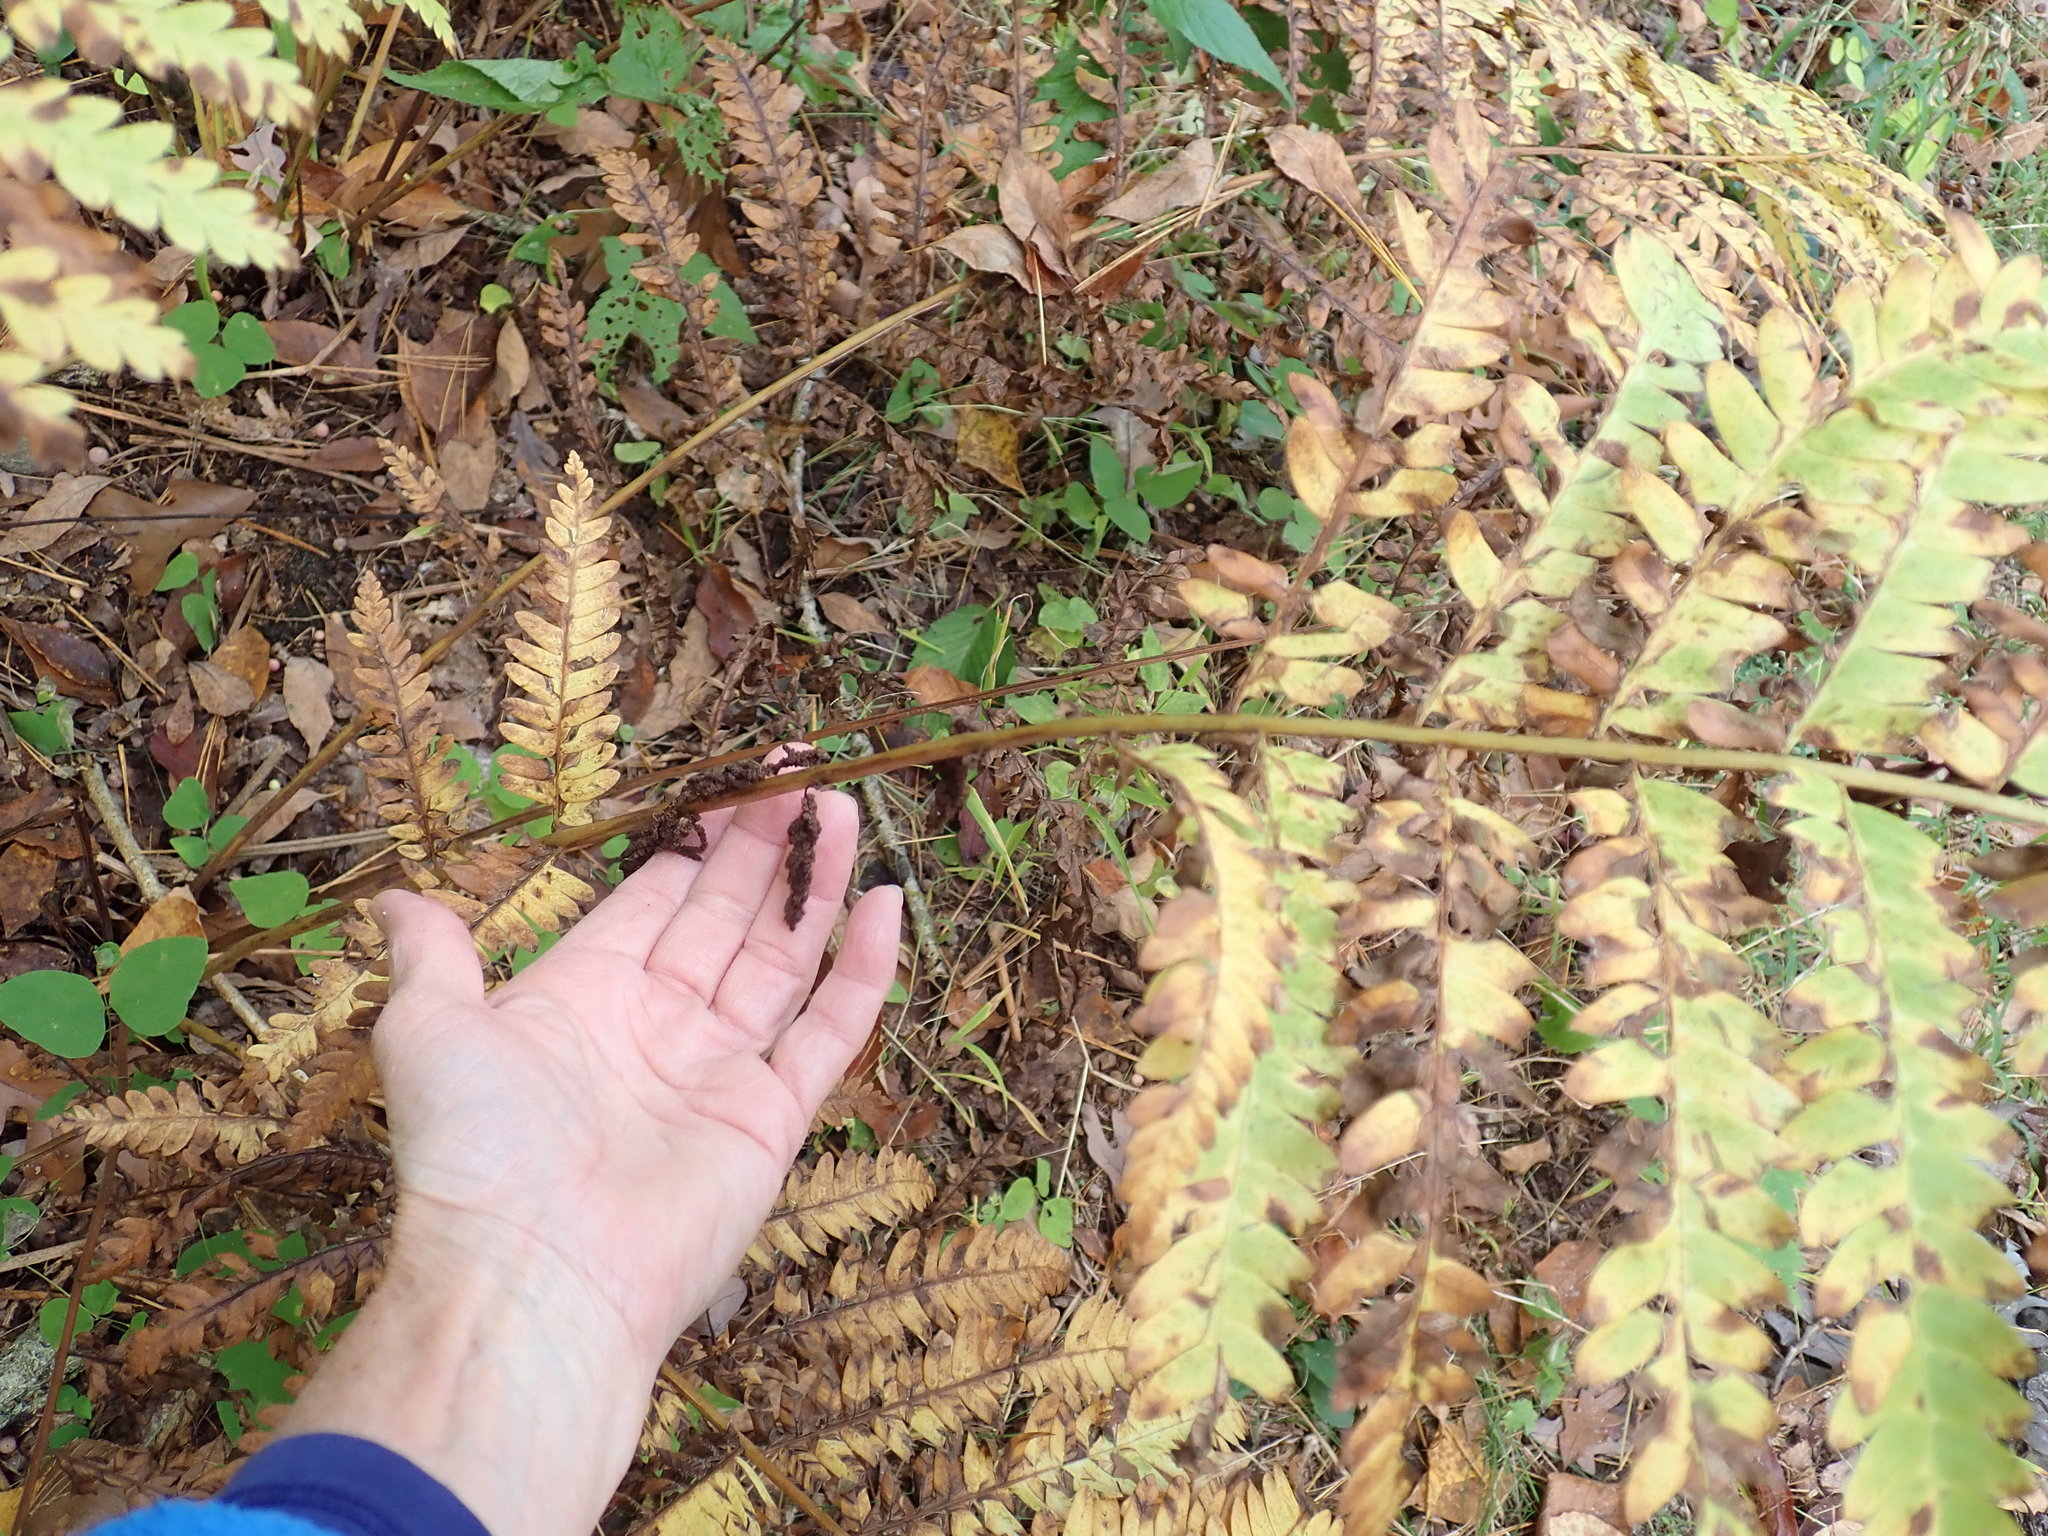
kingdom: Plantae
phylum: Tracheophyta
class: Polypodiopsida
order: Osmundales
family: Osmundaceae
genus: Claytosmunda
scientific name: Claytosmunda claytoniana
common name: Clayton's fern
